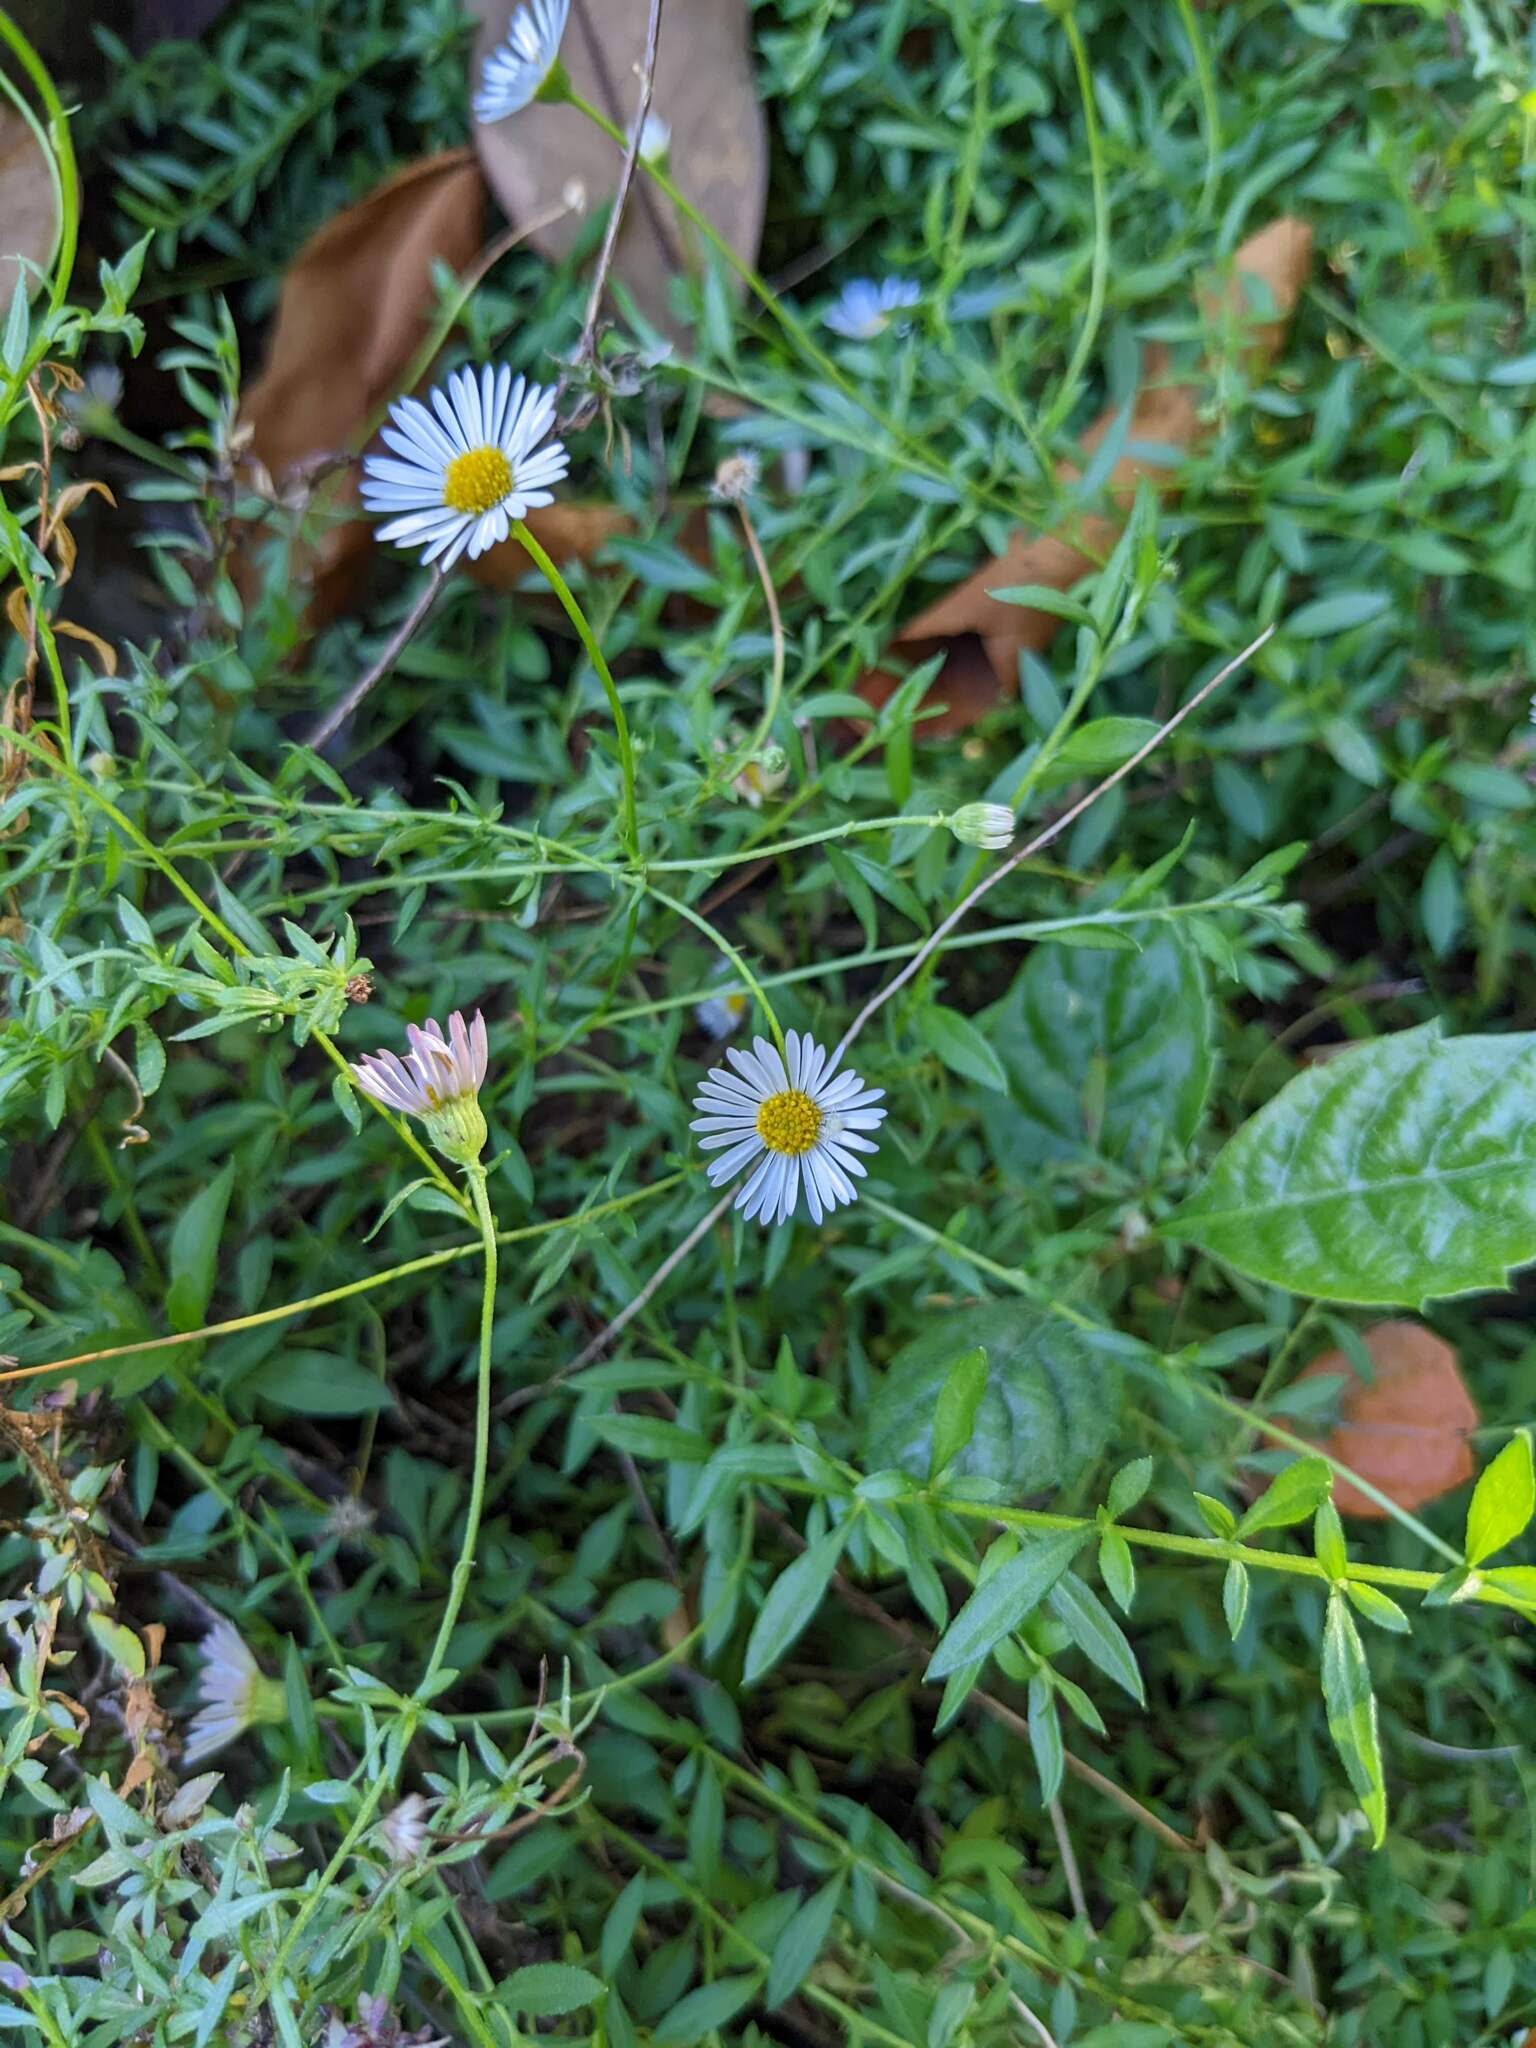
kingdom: Plantae
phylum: Tracheophyta
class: Magnoliopsida
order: Asterales
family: Asteraceae
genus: Erigeron
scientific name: Erigeron karvinskianus
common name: Mexican fleabane
